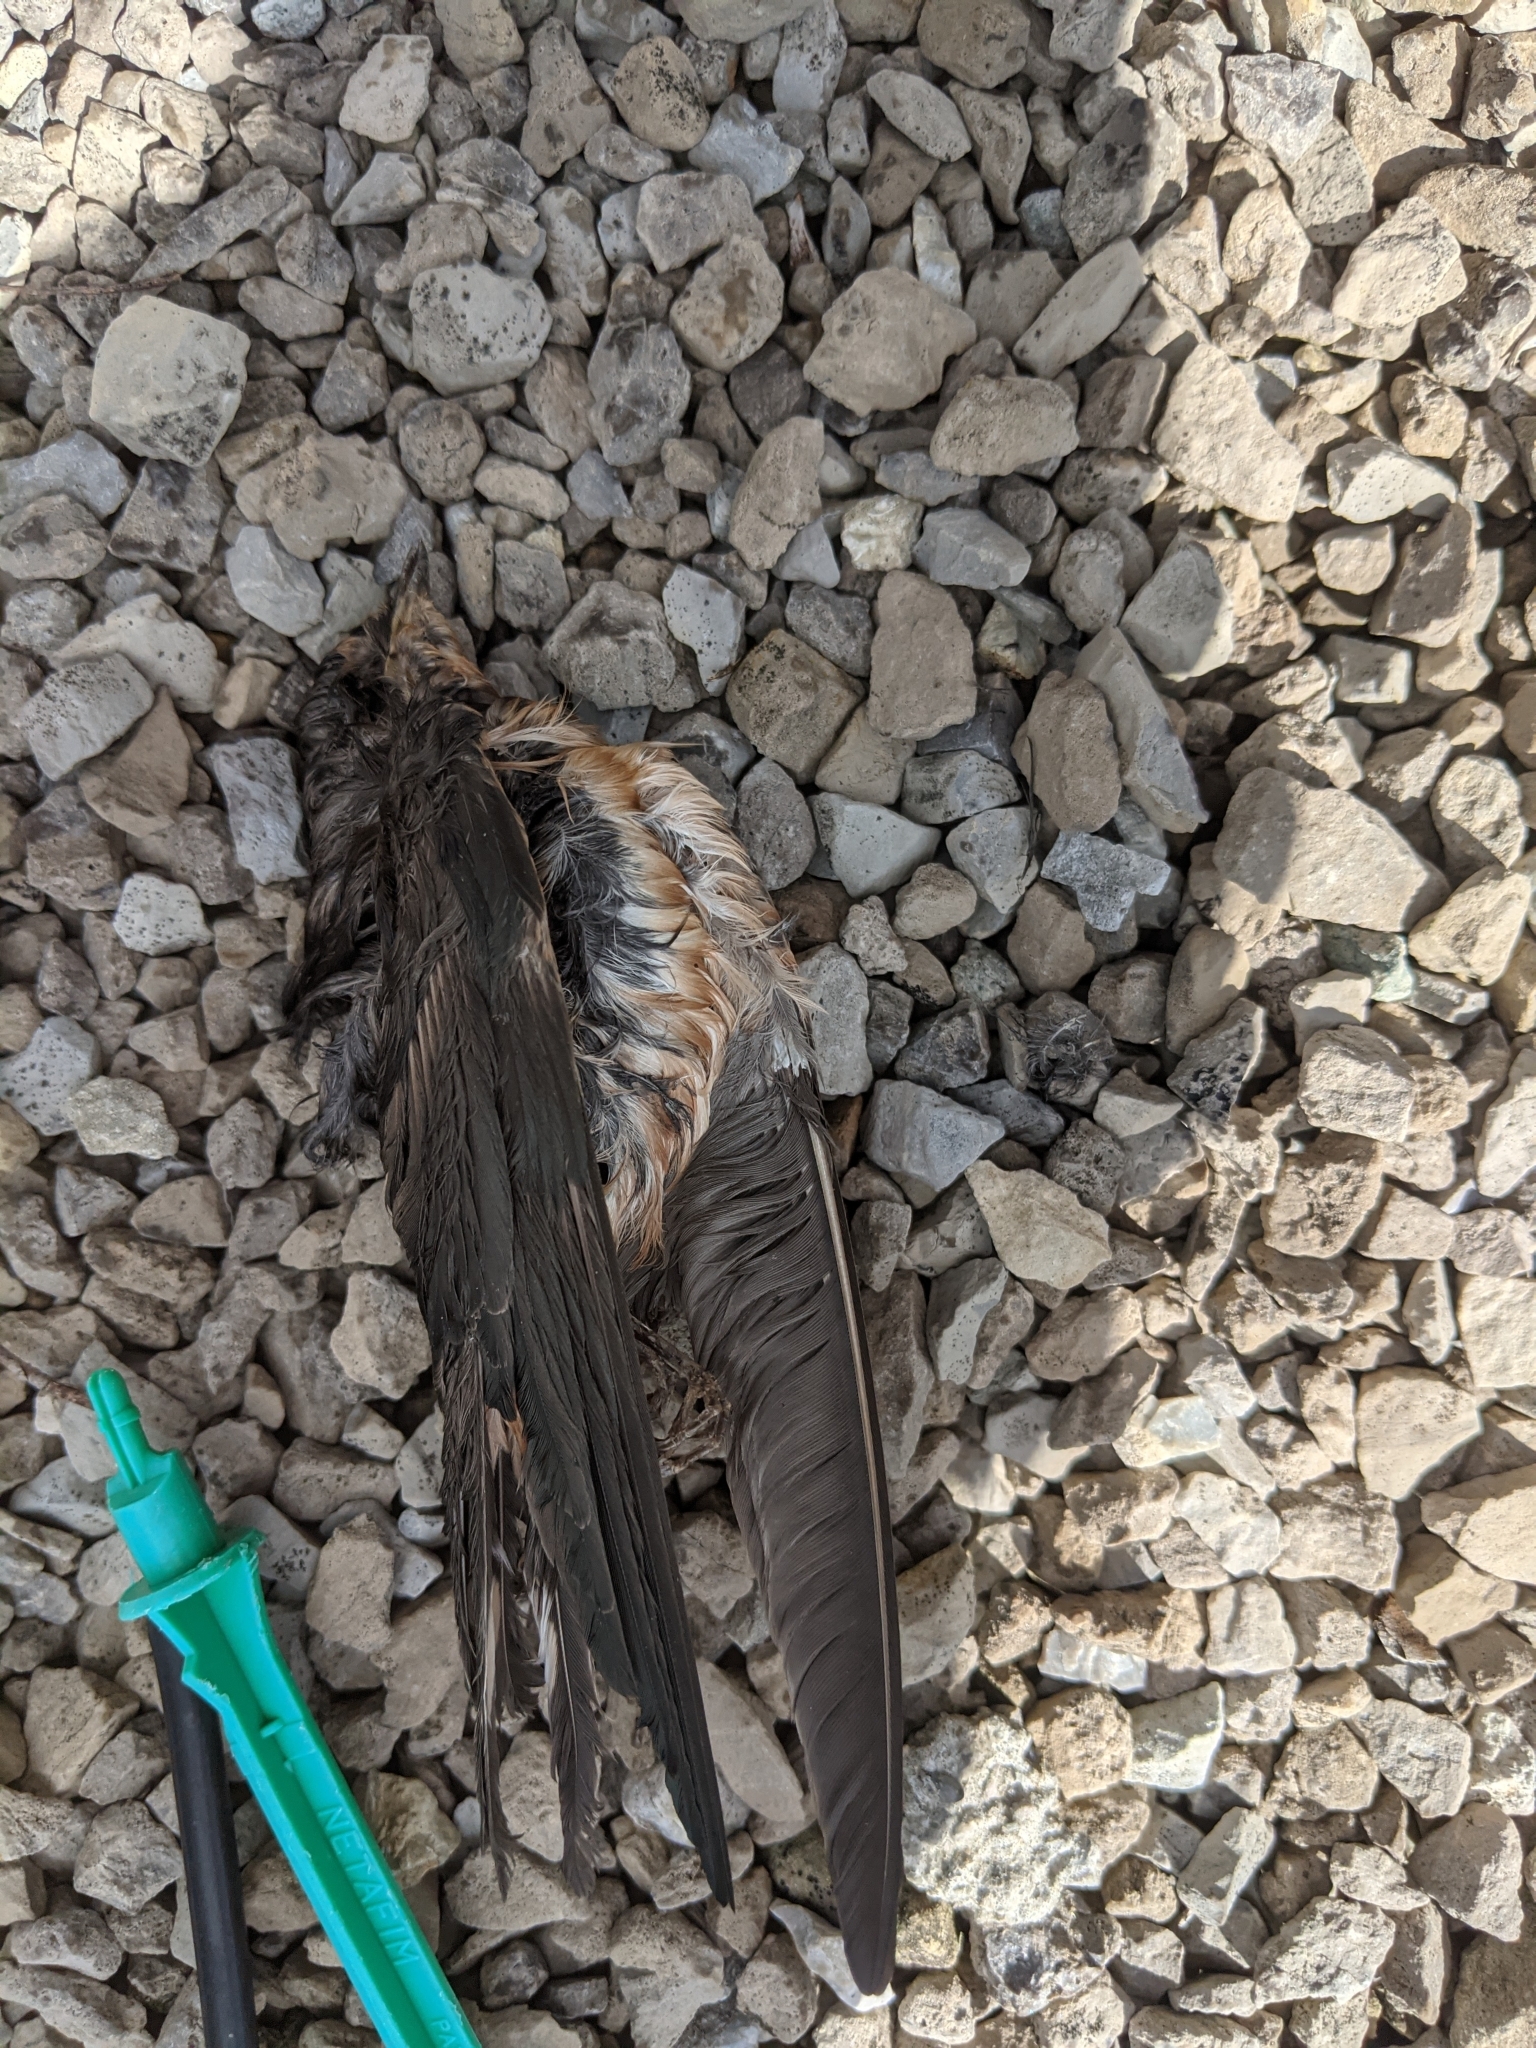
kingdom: Animalia
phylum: Chordata
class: Aves
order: Passeriformes
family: Hirundinidae
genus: Hirundo
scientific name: Hirundo rustica
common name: Barn swallow
